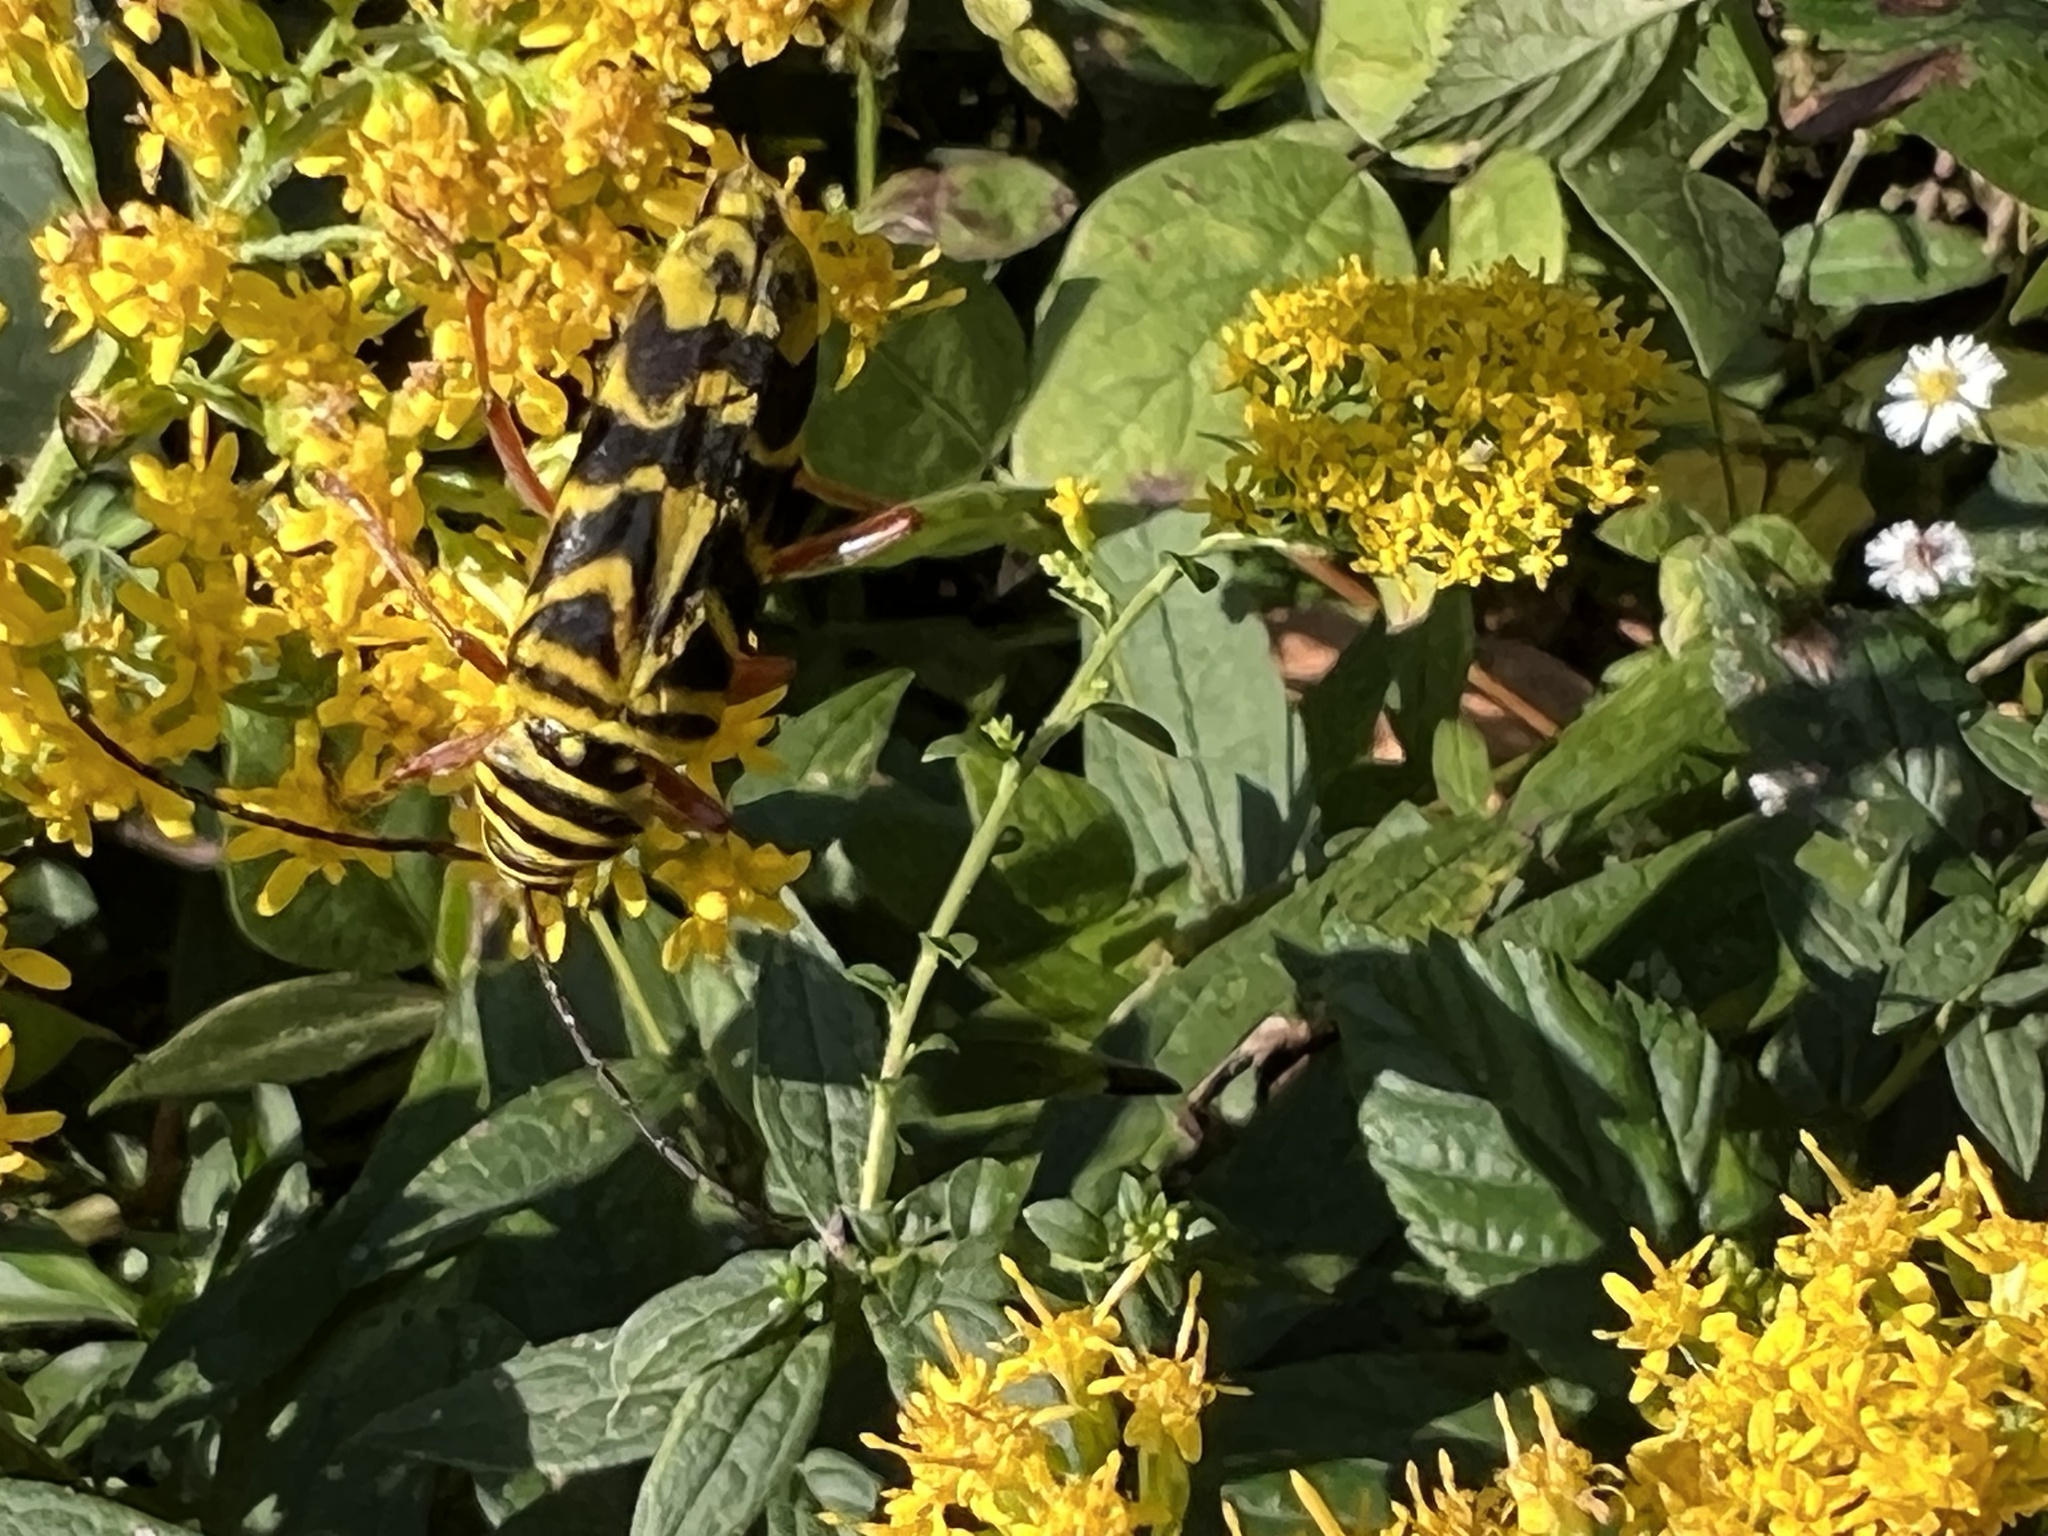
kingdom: Animalia
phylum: Arthropoda
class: Insecta
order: Coleoptera
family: Cerambycidae
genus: Megacyllene
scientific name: Megacyllene robiniae
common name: Locust borer
